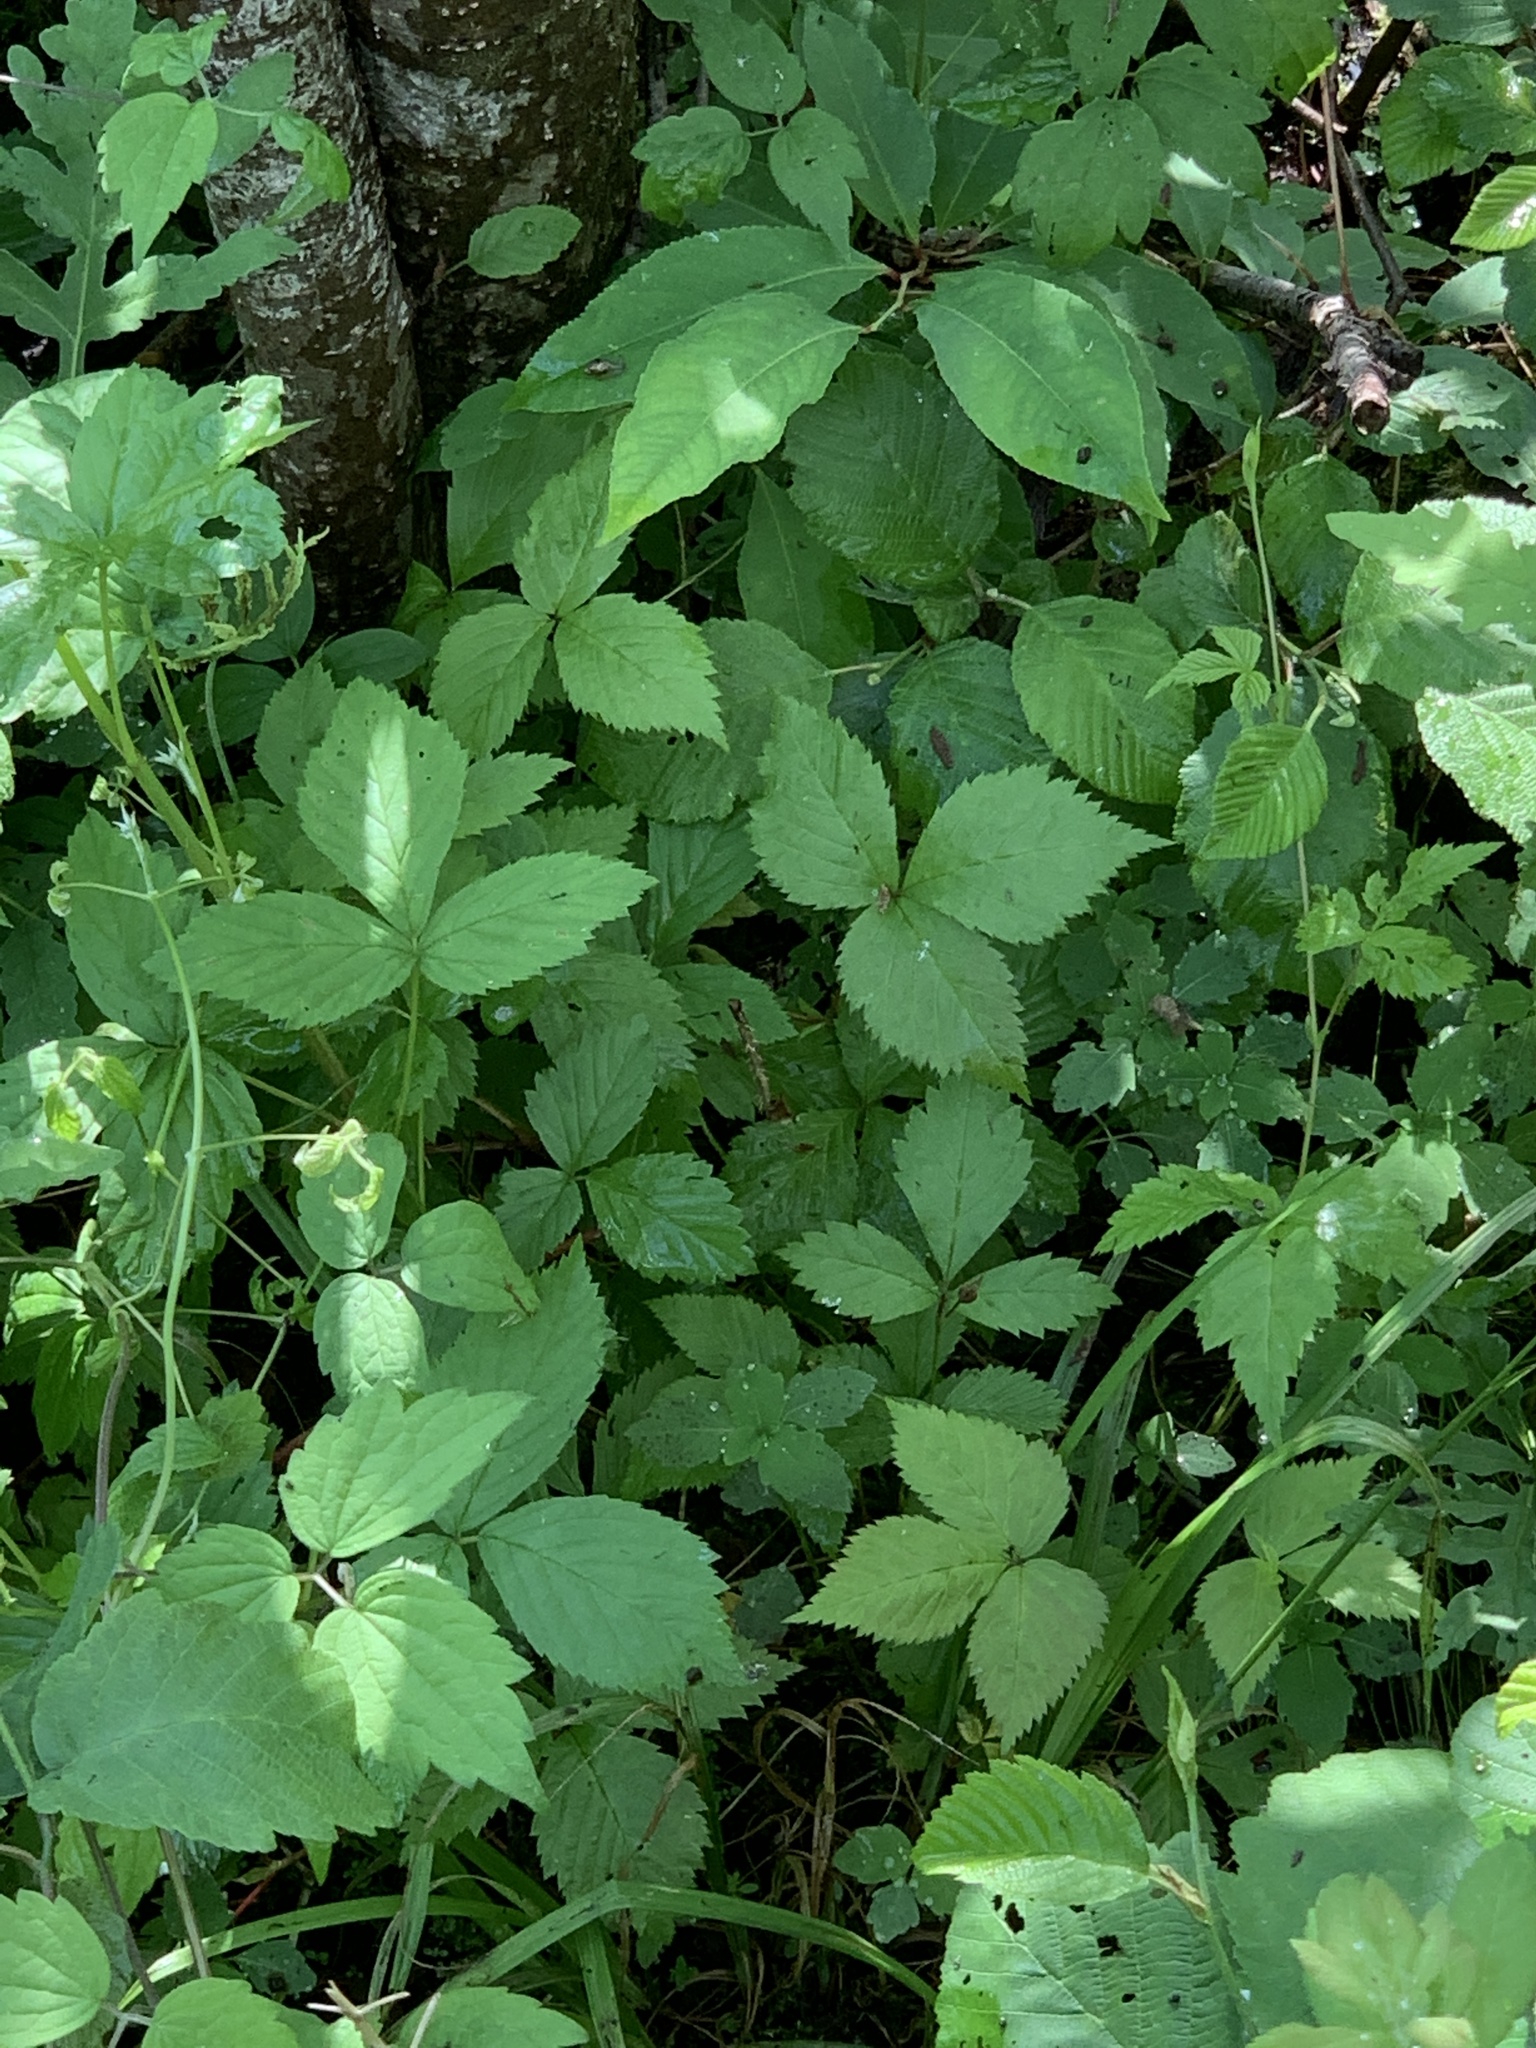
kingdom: Plantae
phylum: Tracheophyta
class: Magnoliopsida
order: Rosales
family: Rosaceae
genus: Rubus
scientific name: Rubus pubescens
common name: Dwarf raspberry
